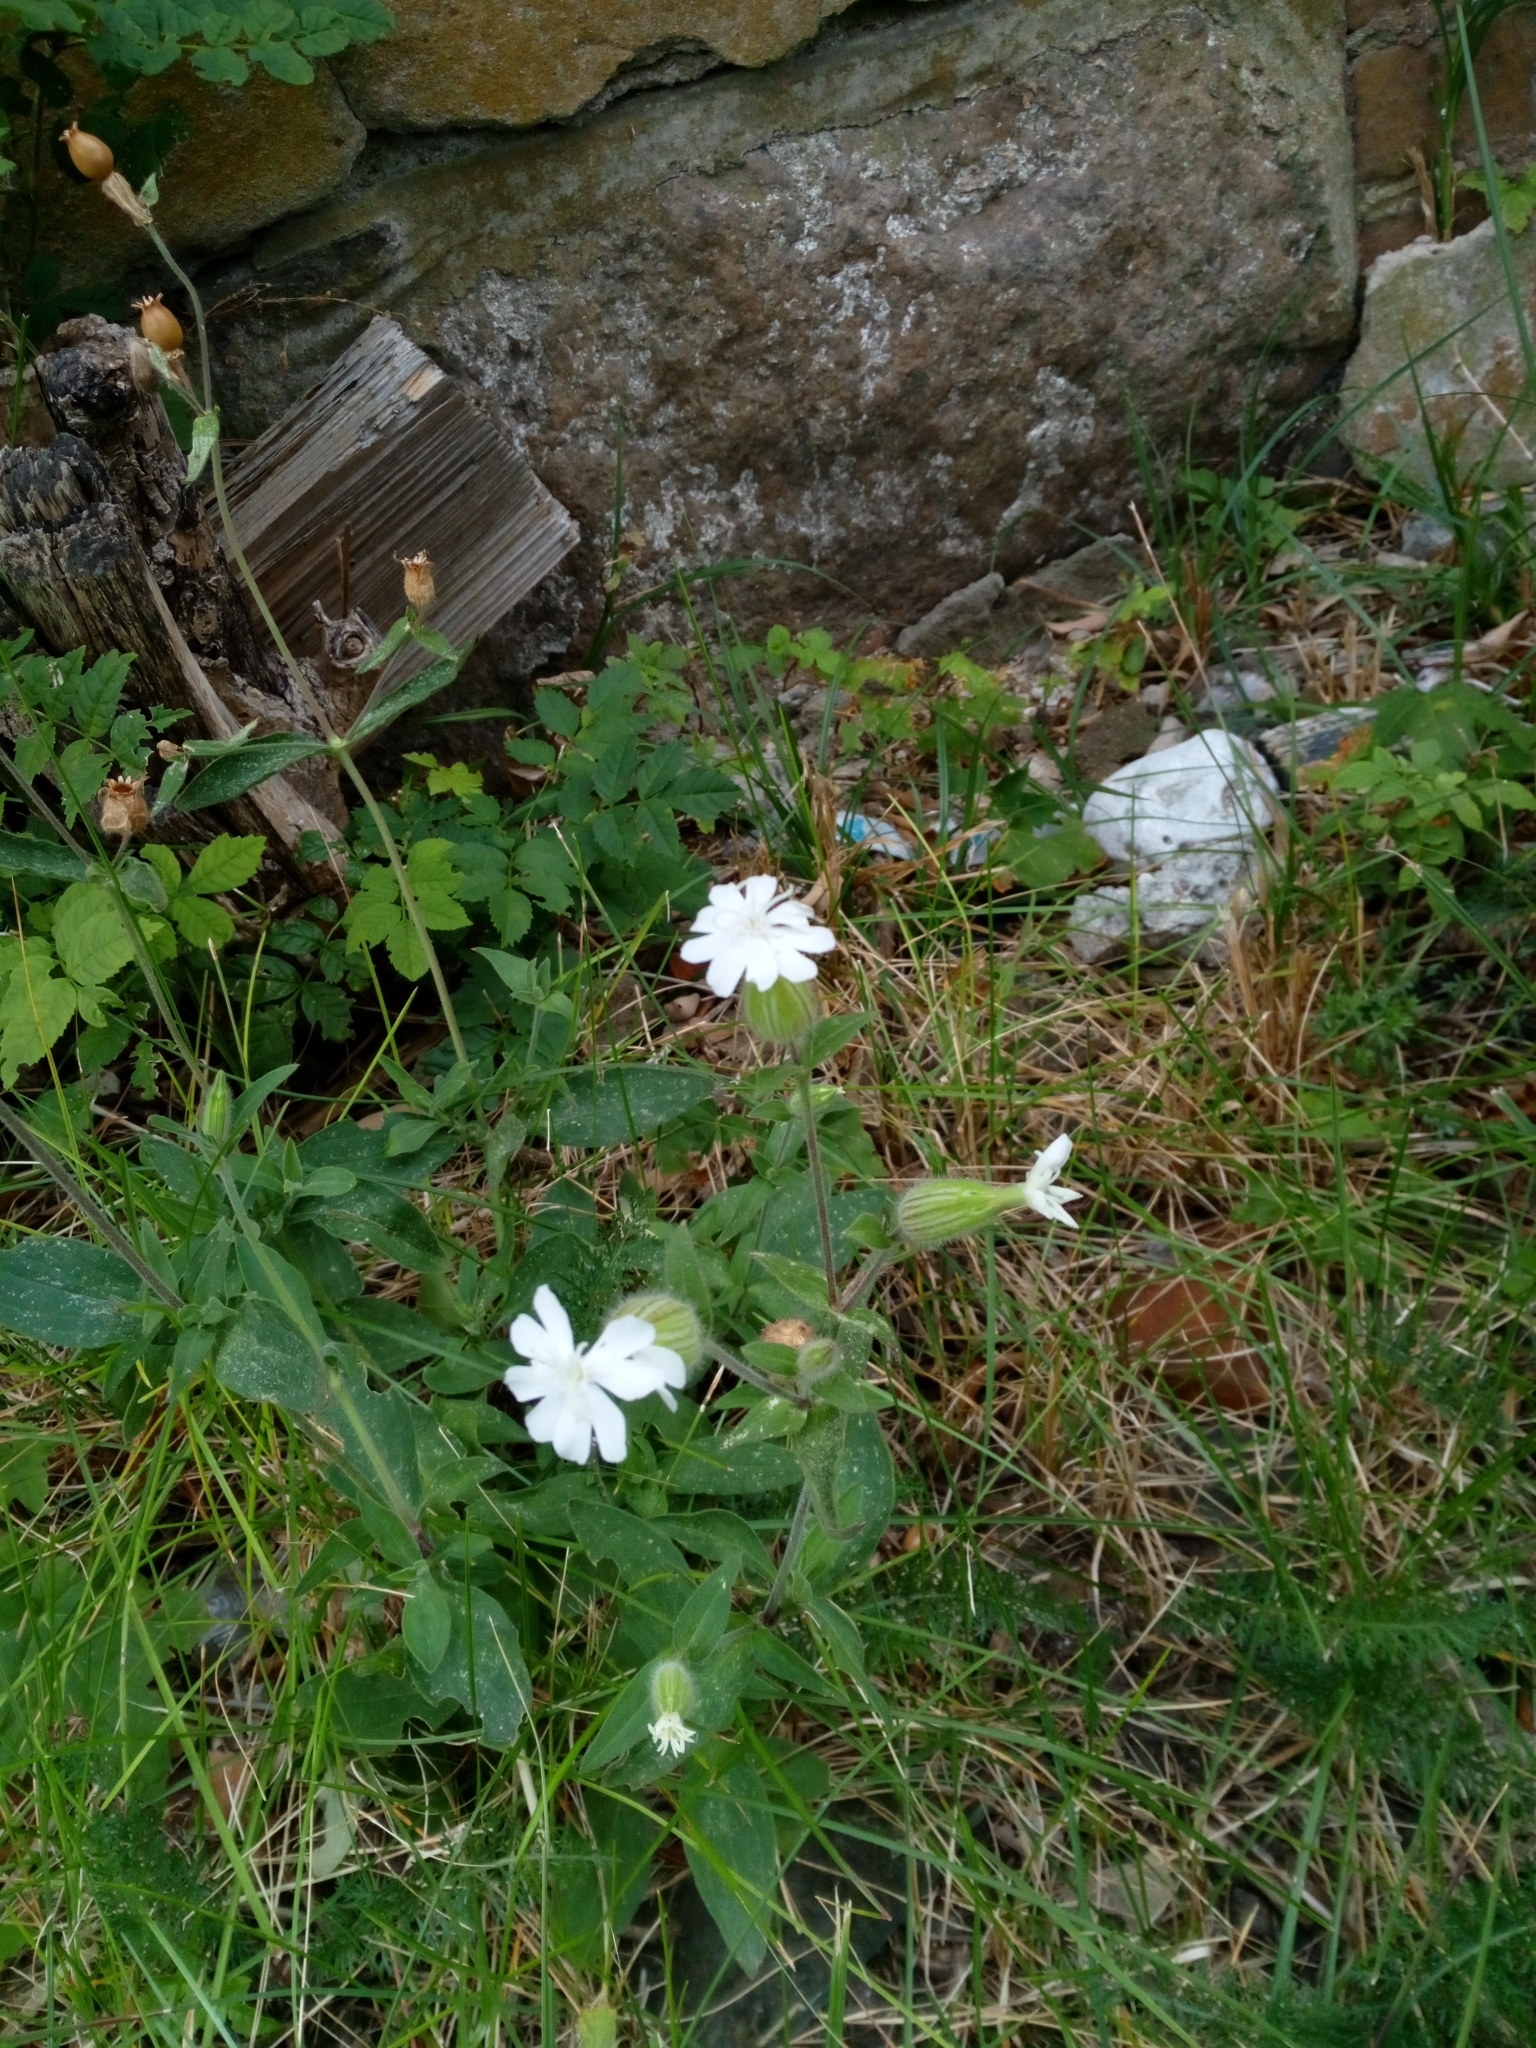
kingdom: Plantae
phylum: Tracheophyta
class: Magnoliopsida
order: Caryophyllales
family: Caryophyllaceae
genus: Silene
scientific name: Silene latifolia
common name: White campion
